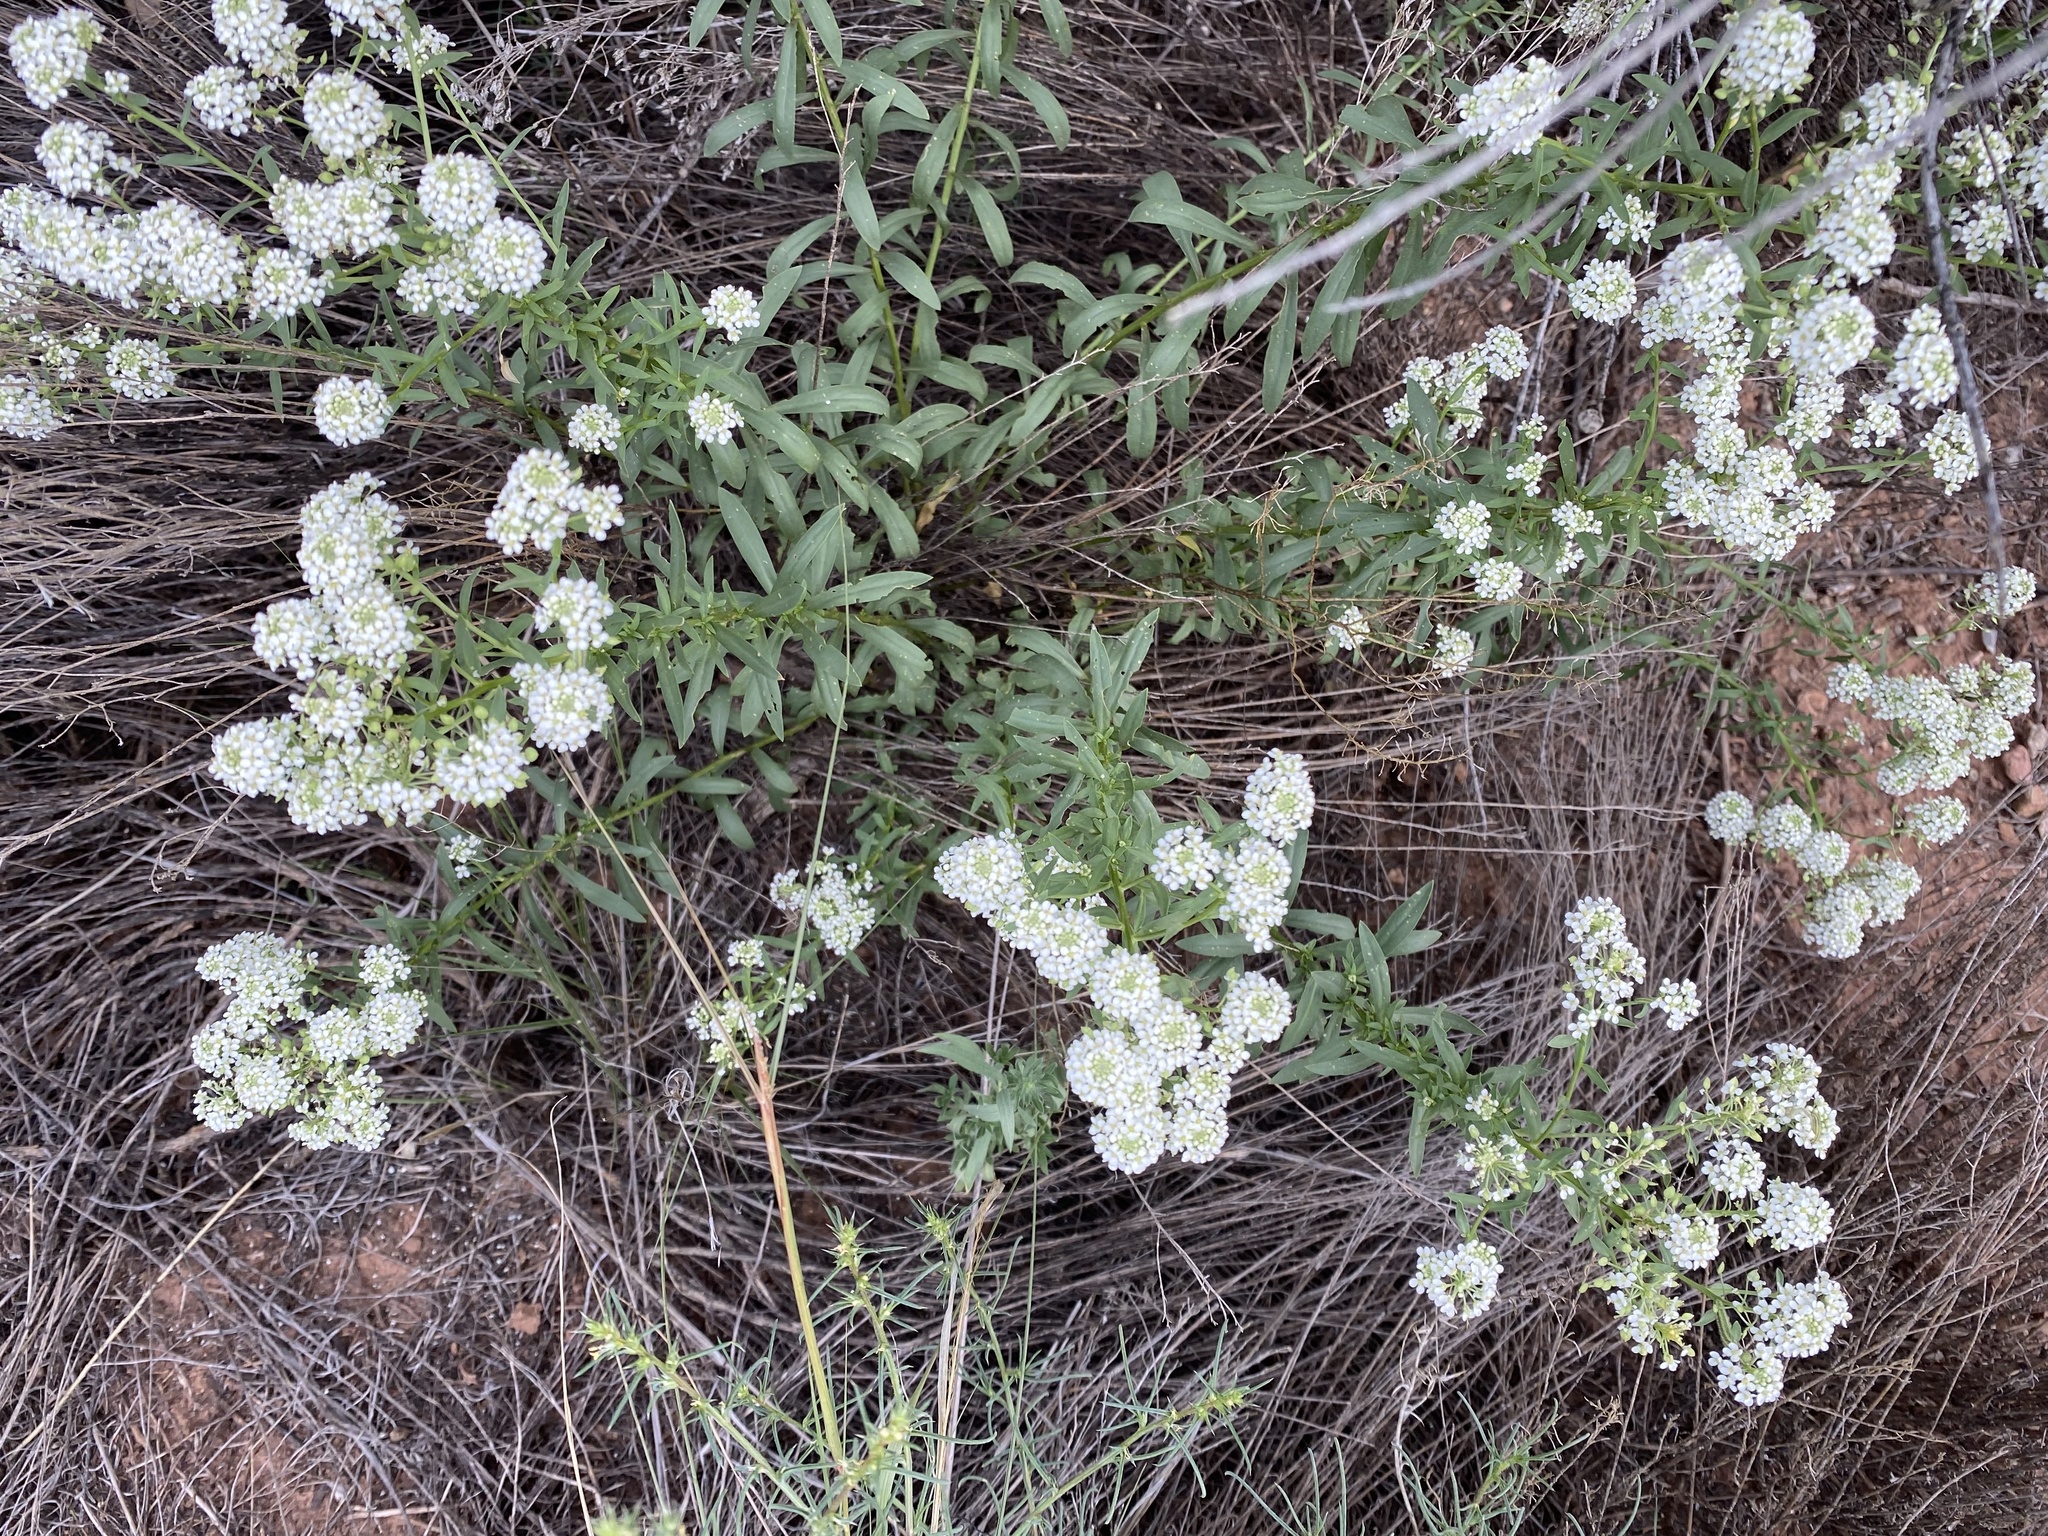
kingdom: Plantae
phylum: Tracheophyta
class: Magnoliopsida
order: Brassicales
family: Brassicaceae
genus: Lepidium
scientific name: Lepidium
